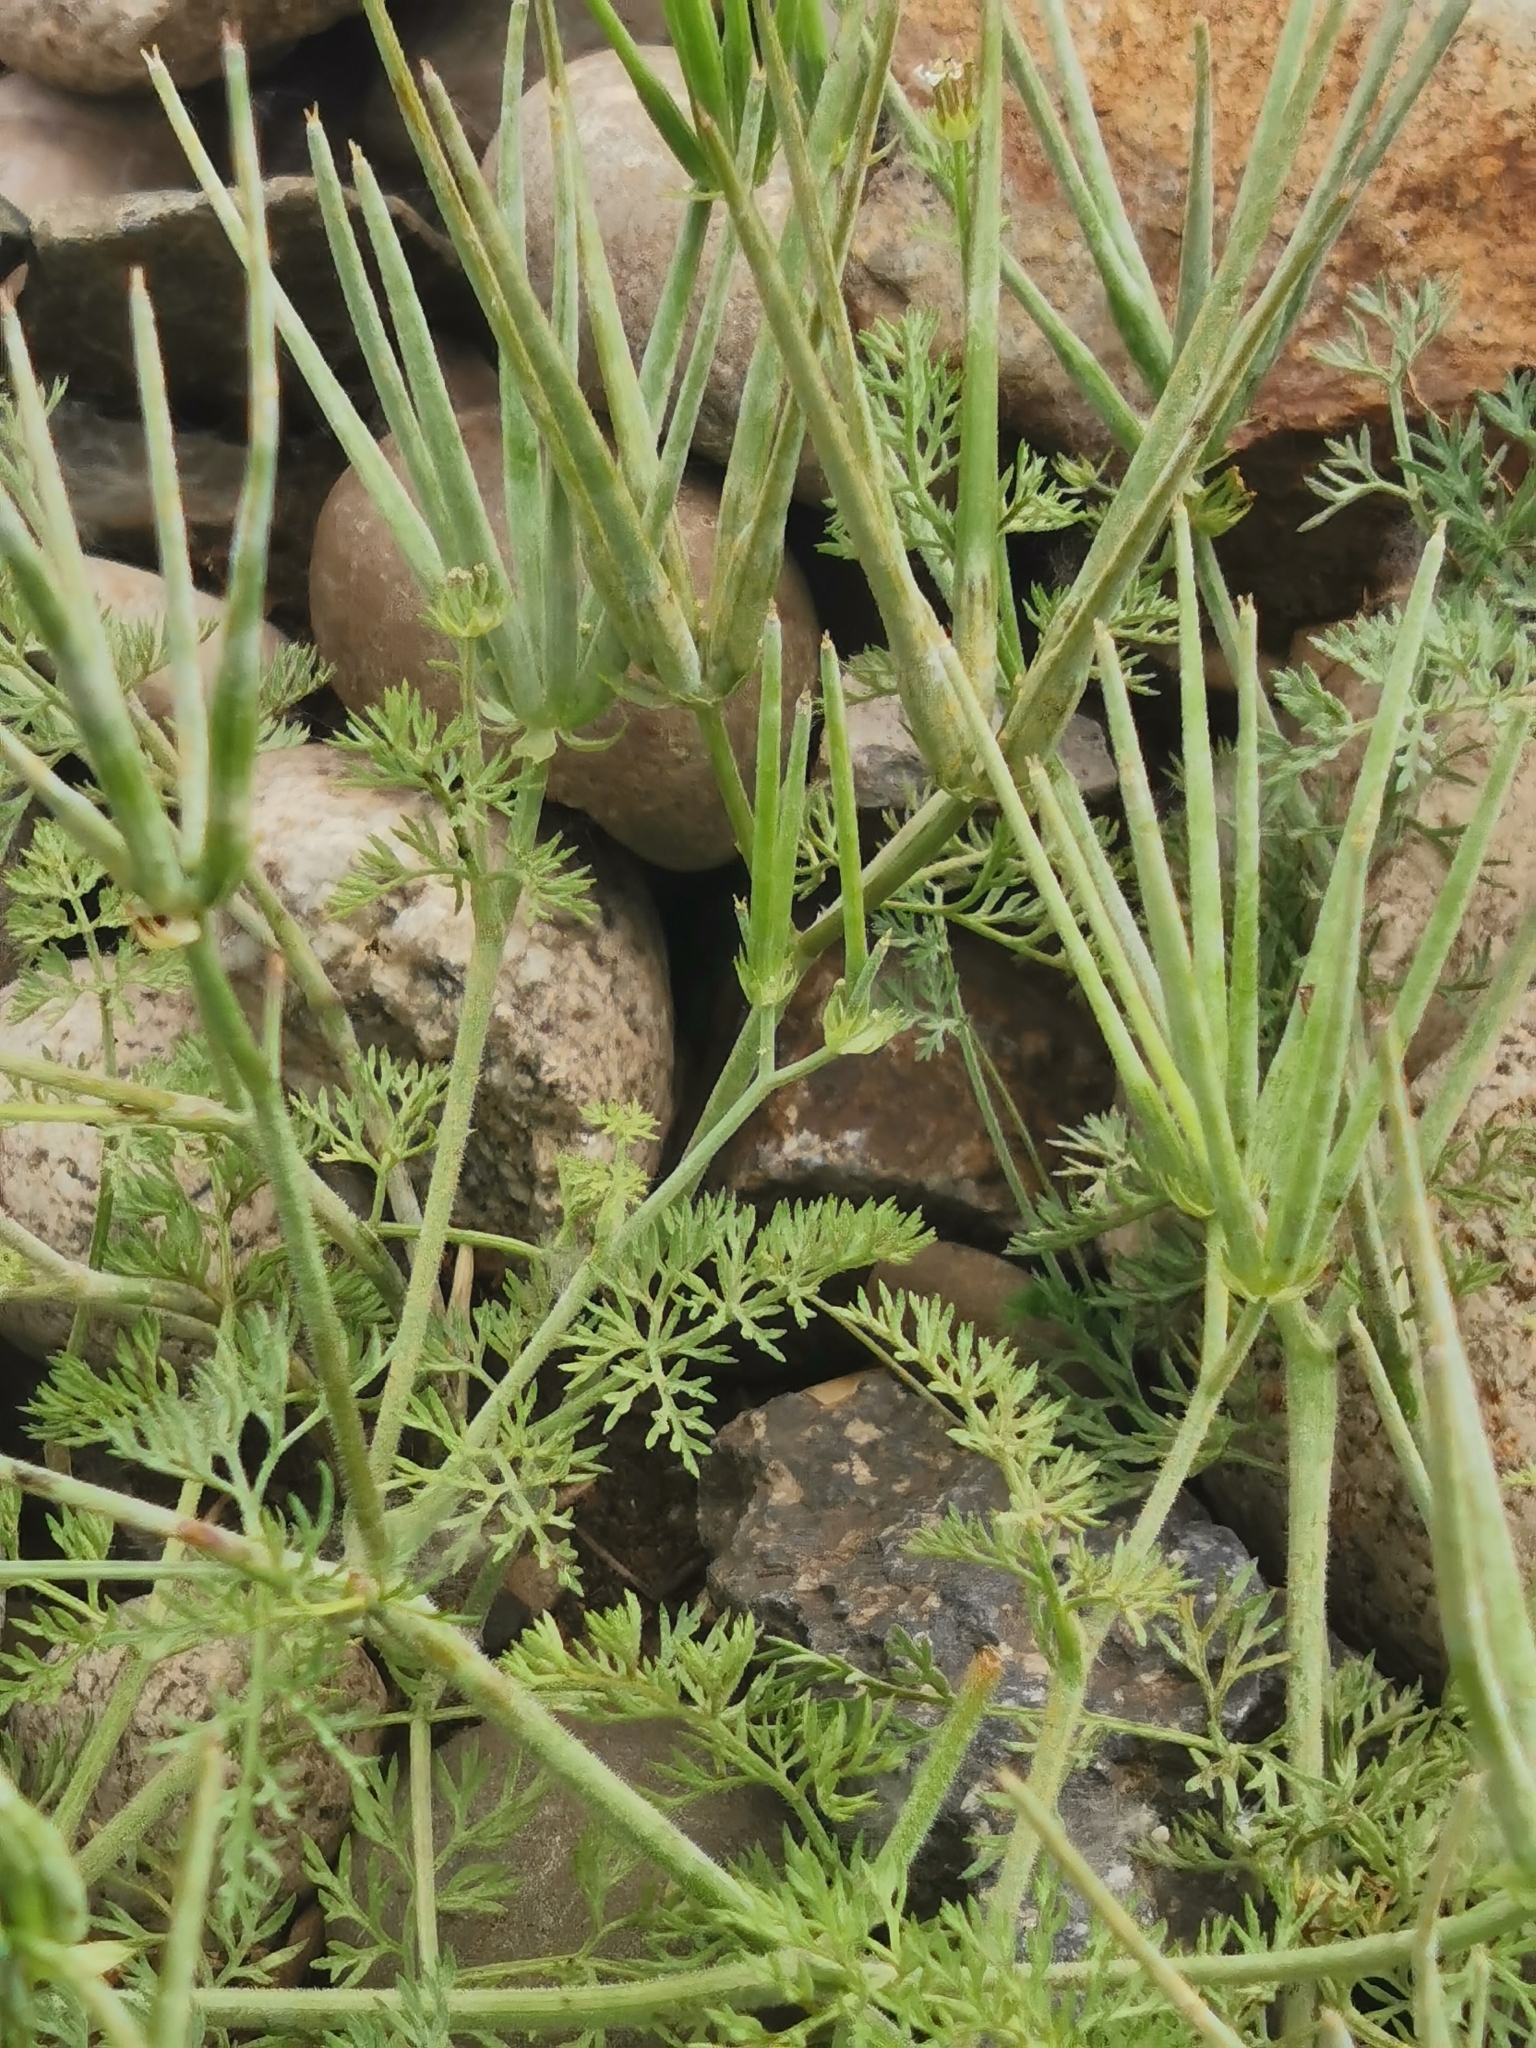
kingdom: Plantae
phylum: Tracheophyta
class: Magnoliopsida
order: Apiales
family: Apiaceae
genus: Scandix
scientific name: Scandix pecten-veneris
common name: Shepherd's-needle
